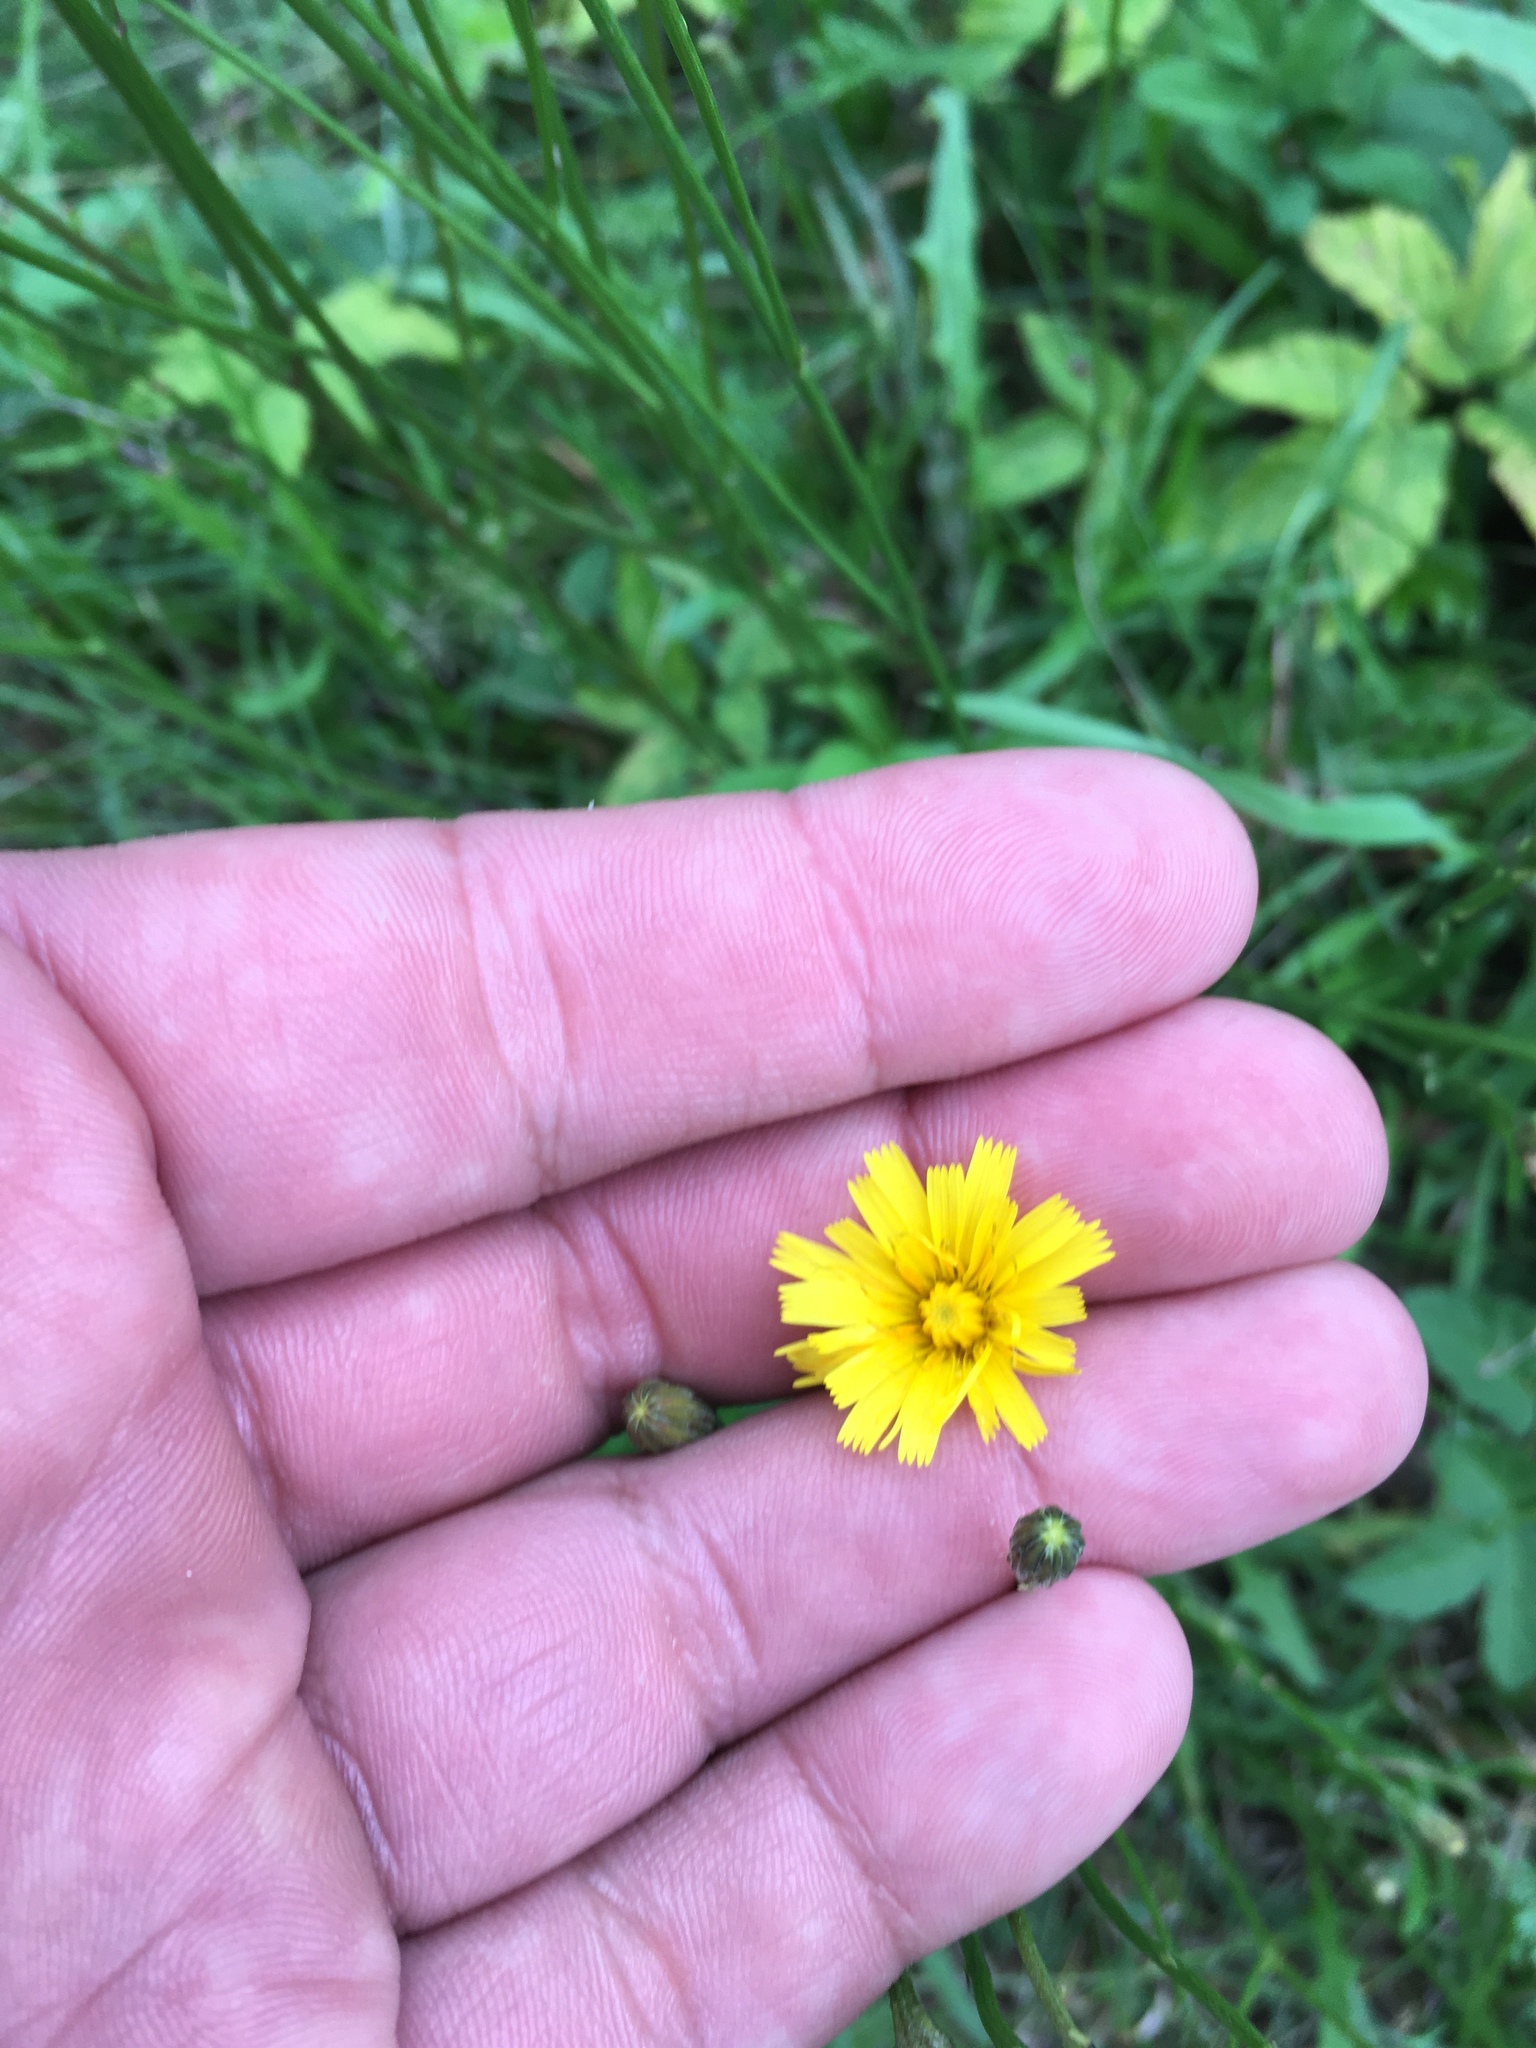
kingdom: Plantae
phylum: Tracheophyta
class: Magnoliopsida
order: Asterales
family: Asteraceae
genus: Scorzoneroides
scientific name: Scorzoneroides autumnalis
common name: Autumn hawkbit
